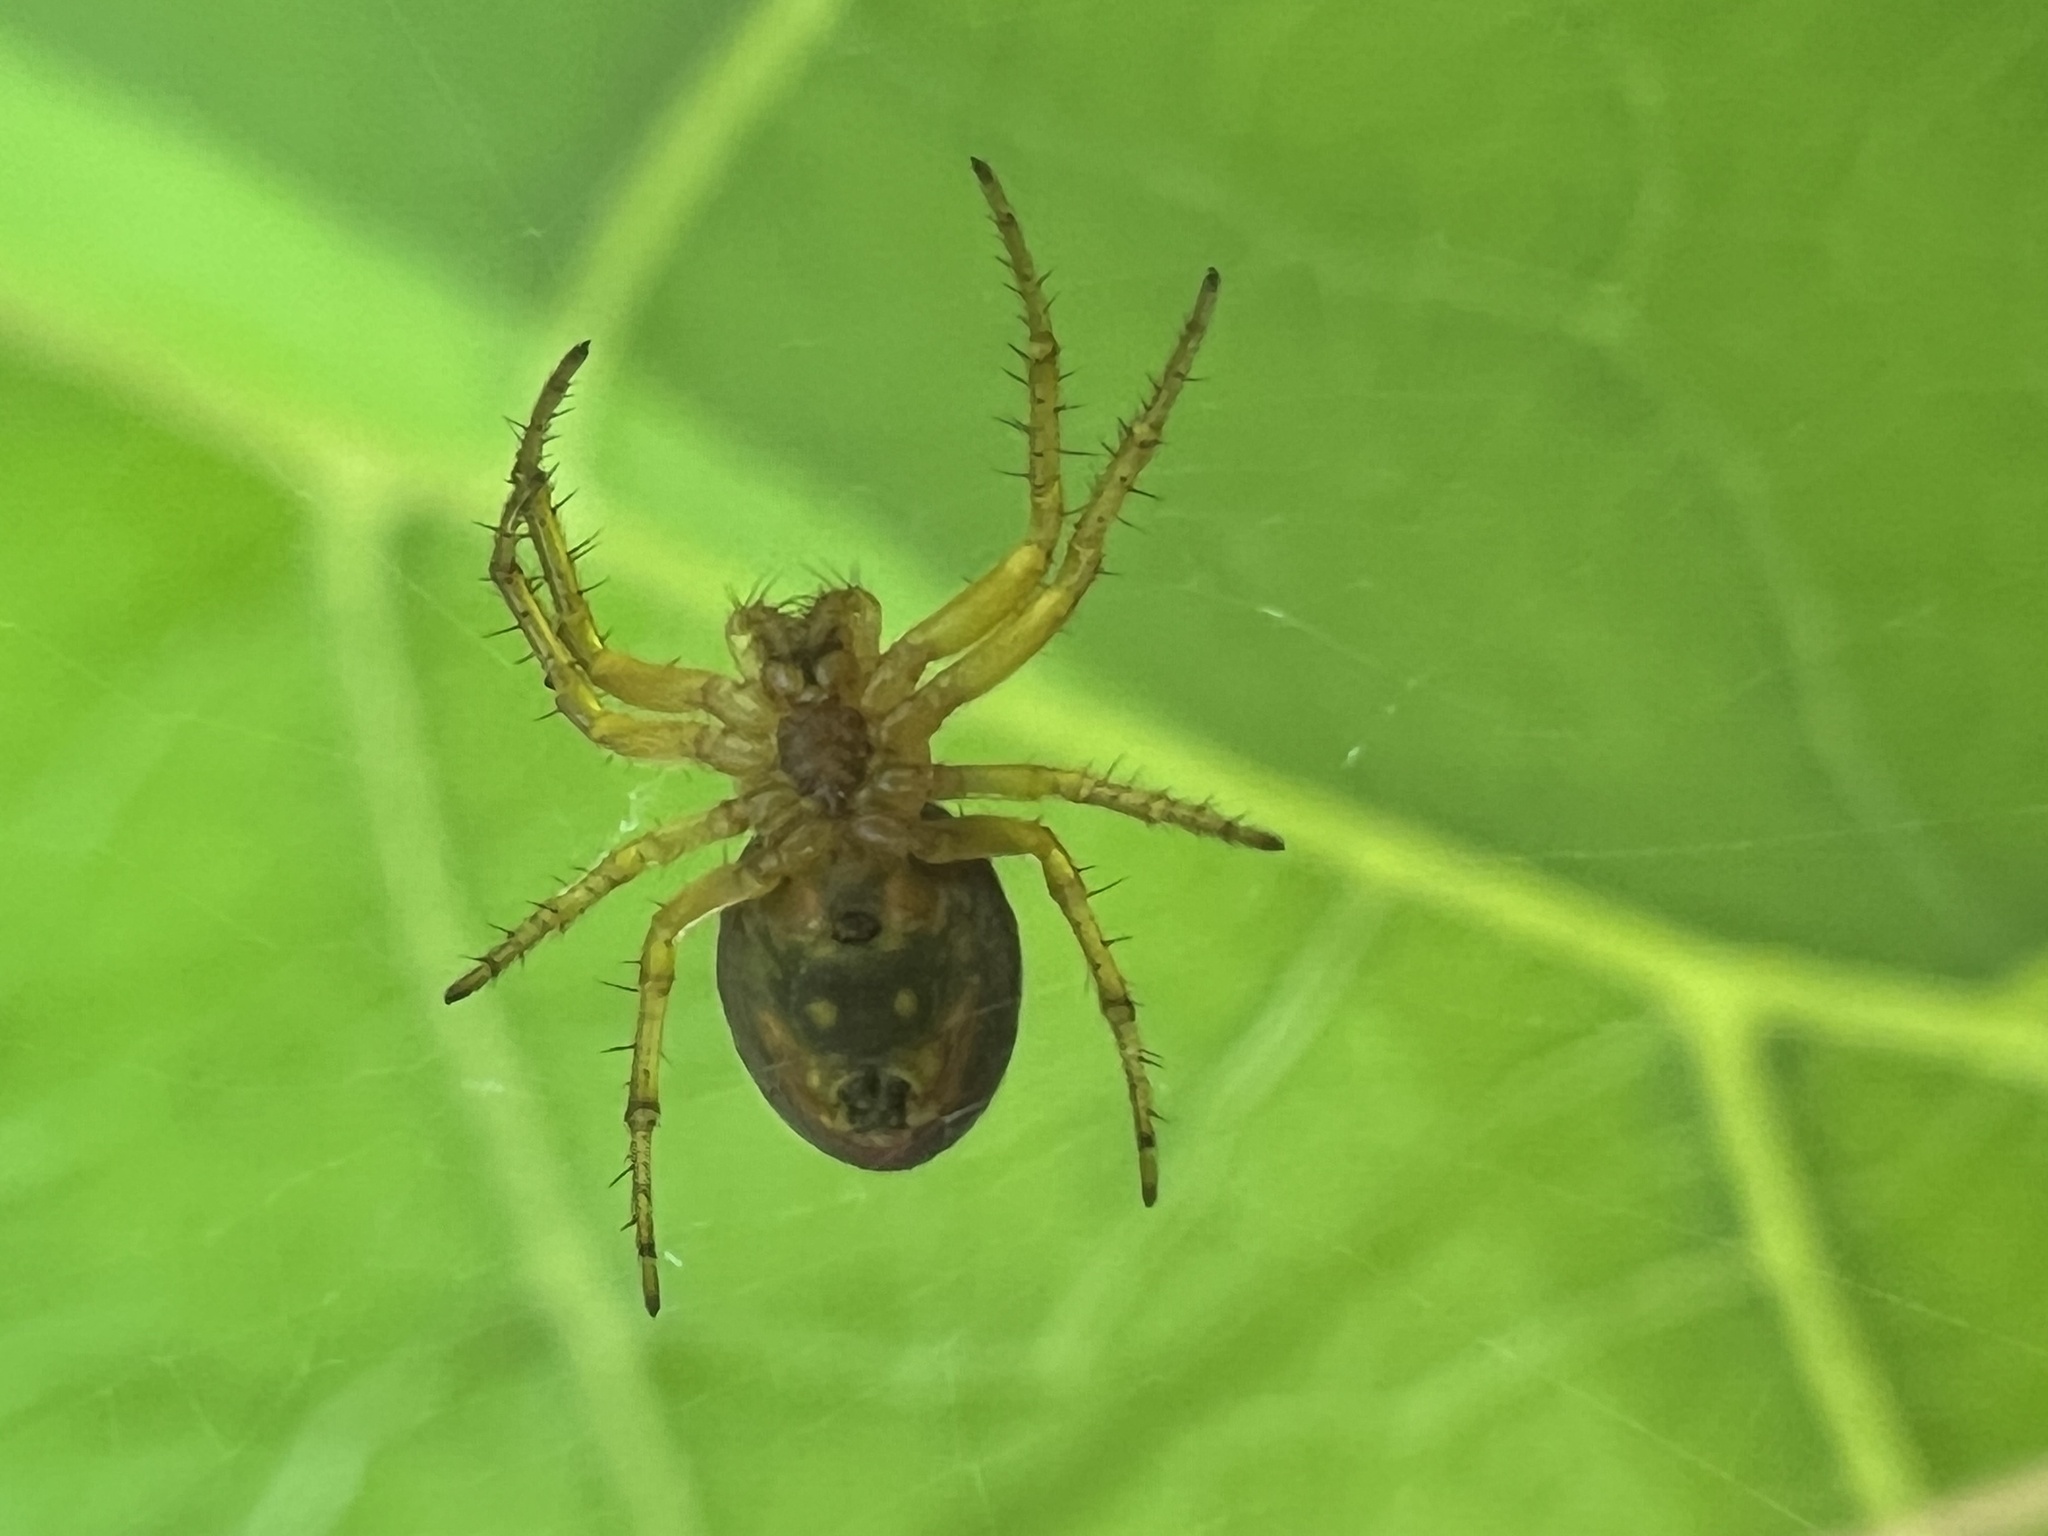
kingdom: Animalia
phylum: Arthropoda
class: Arachnida
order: Araneae
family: Araneidae
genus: Araniella
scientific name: Araniella displicata
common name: Sixspotted orb weaver
